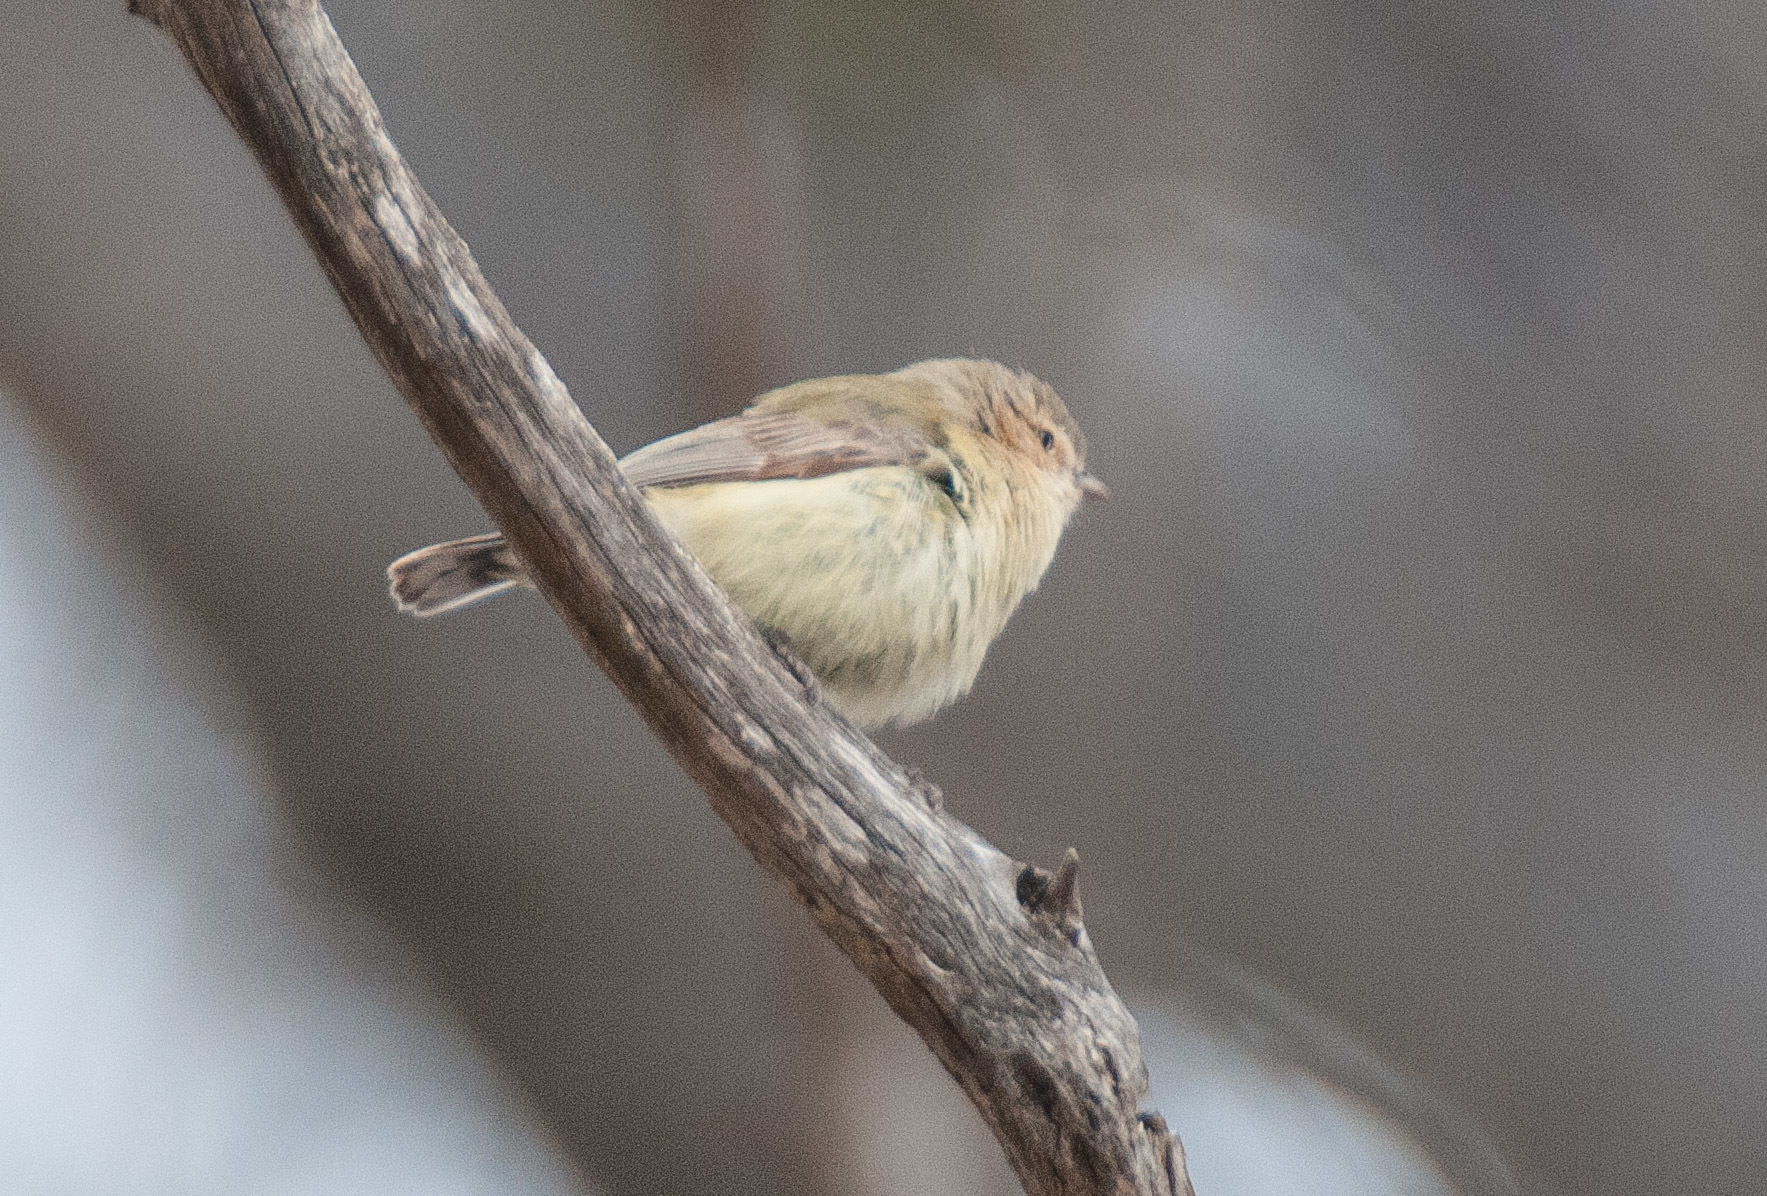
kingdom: Animalia
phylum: Chordata
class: Aves
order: Passeriformes
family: Acanthizidae
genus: Smicrornis
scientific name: Smicrornis brevirostris
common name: Weebill
